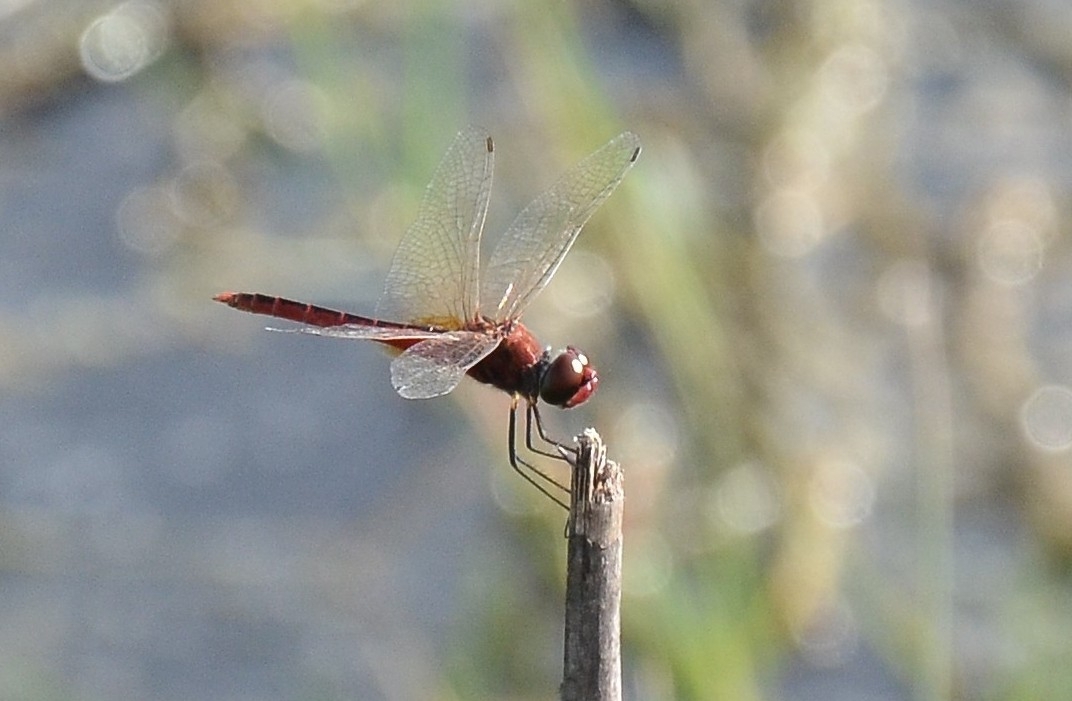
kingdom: Animalia
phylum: Arthropoda
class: Insecta
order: Odonata
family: Libellulidae
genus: Macrodiplax
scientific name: Macrodiplax cora
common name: Coastal glider
